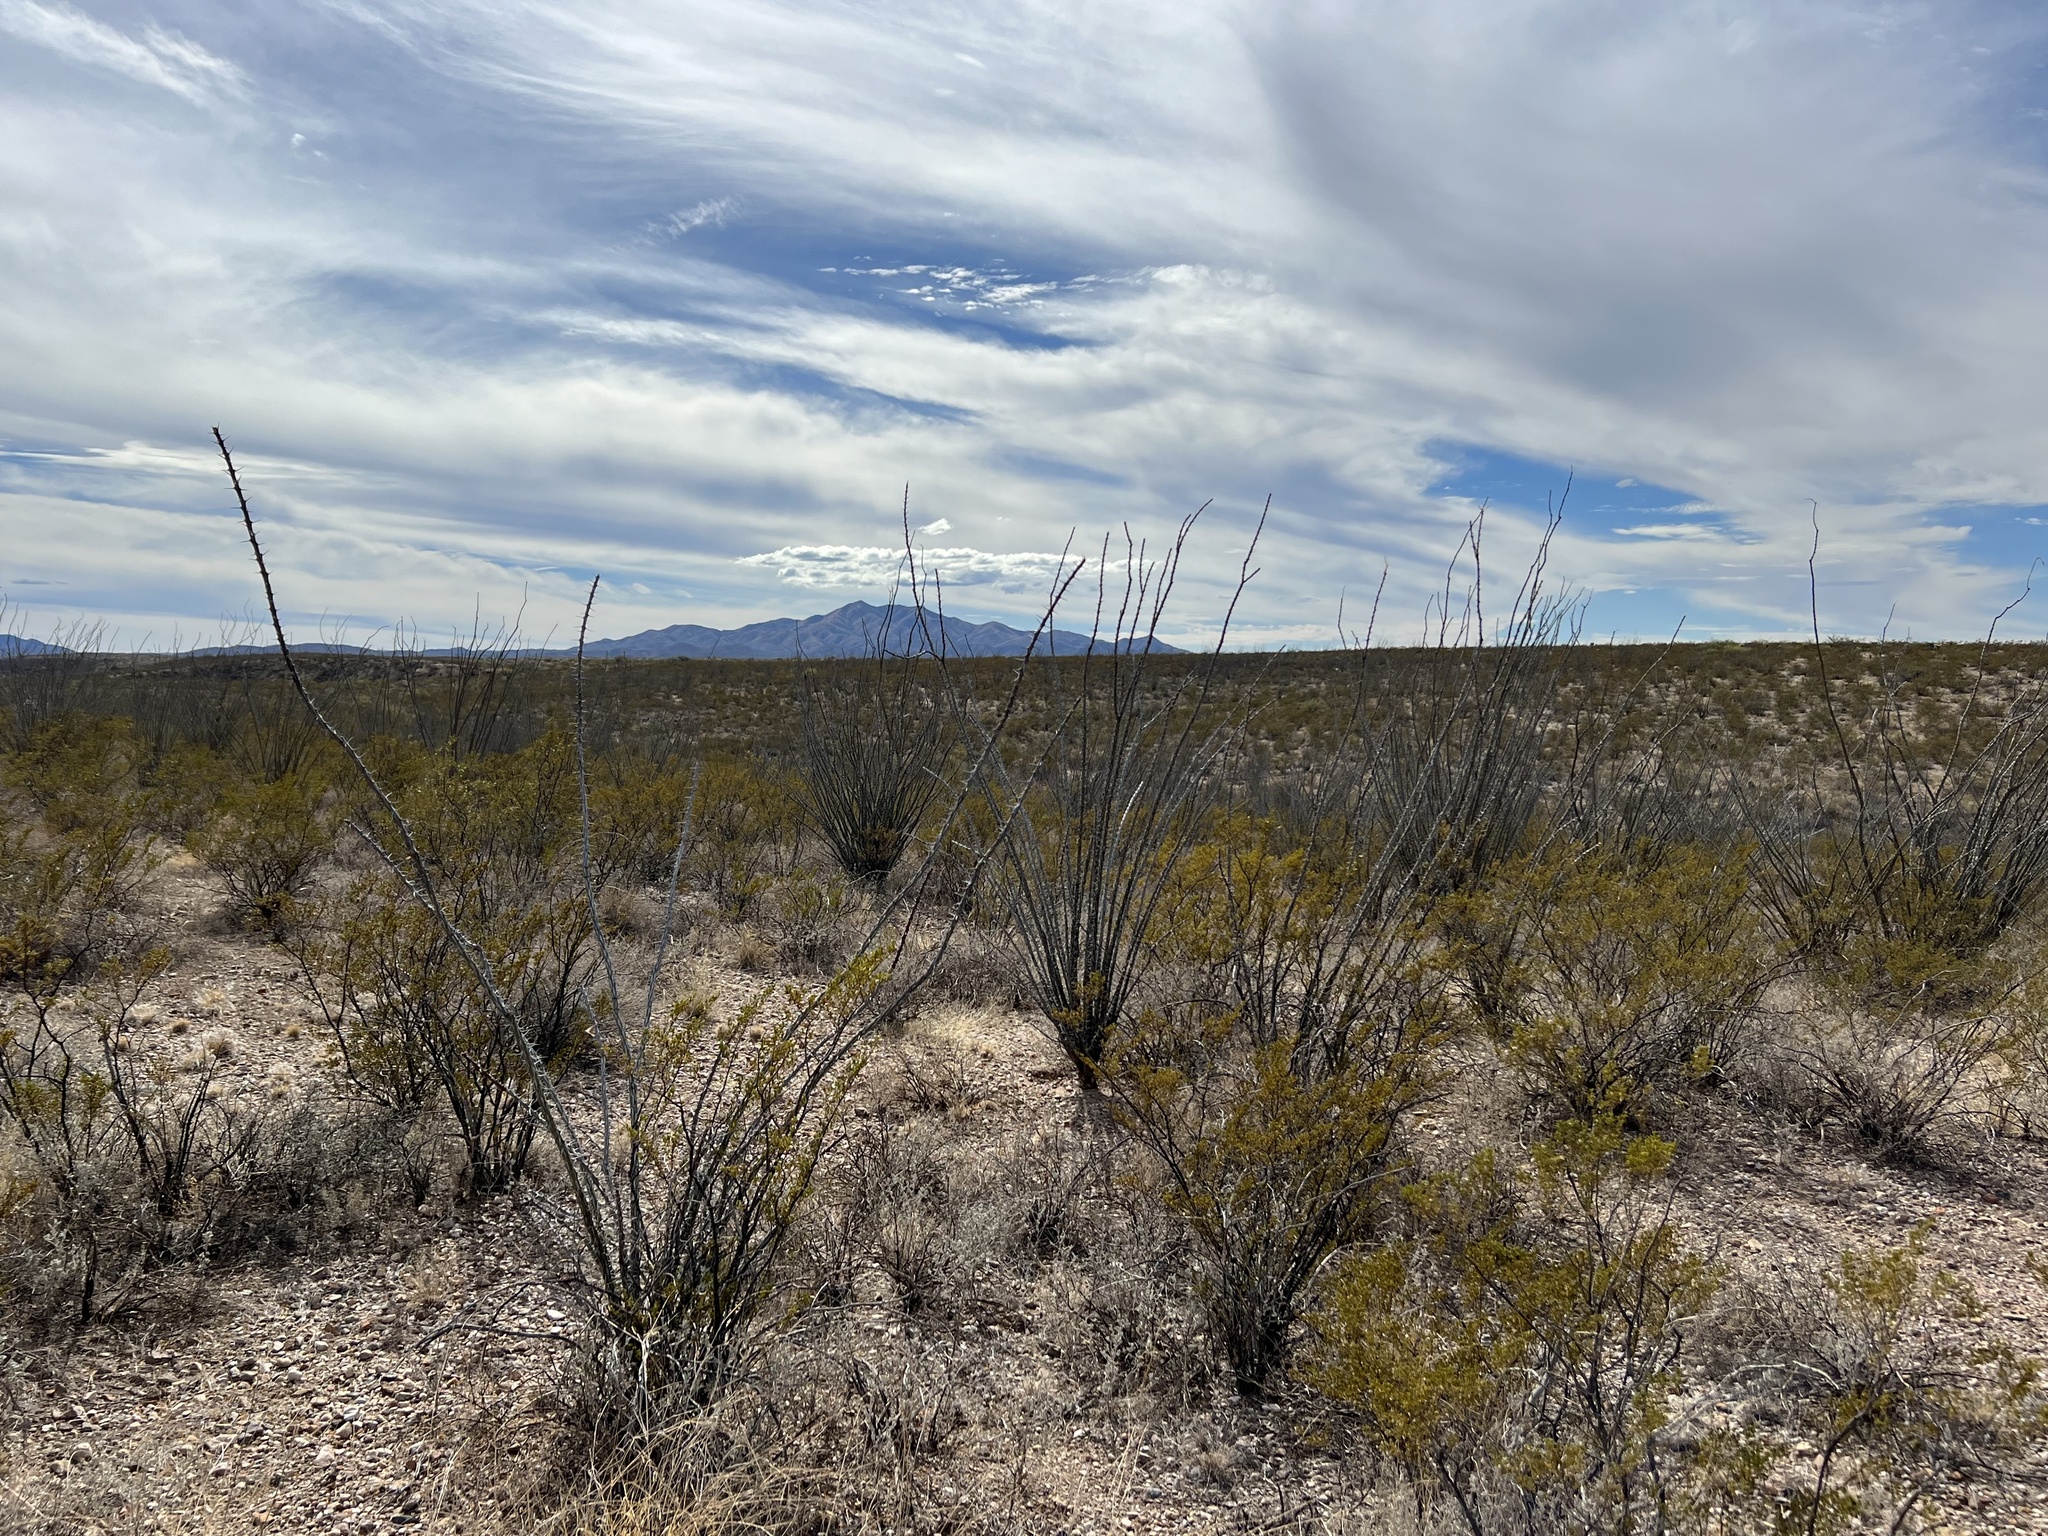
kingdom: Plantae
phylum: Tracheophyta
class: Magnoliopsida
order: Ericales
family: Fouquieriaceae
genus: Fouquieria
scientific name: Fouquieria splendens
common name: Vine-cactus
